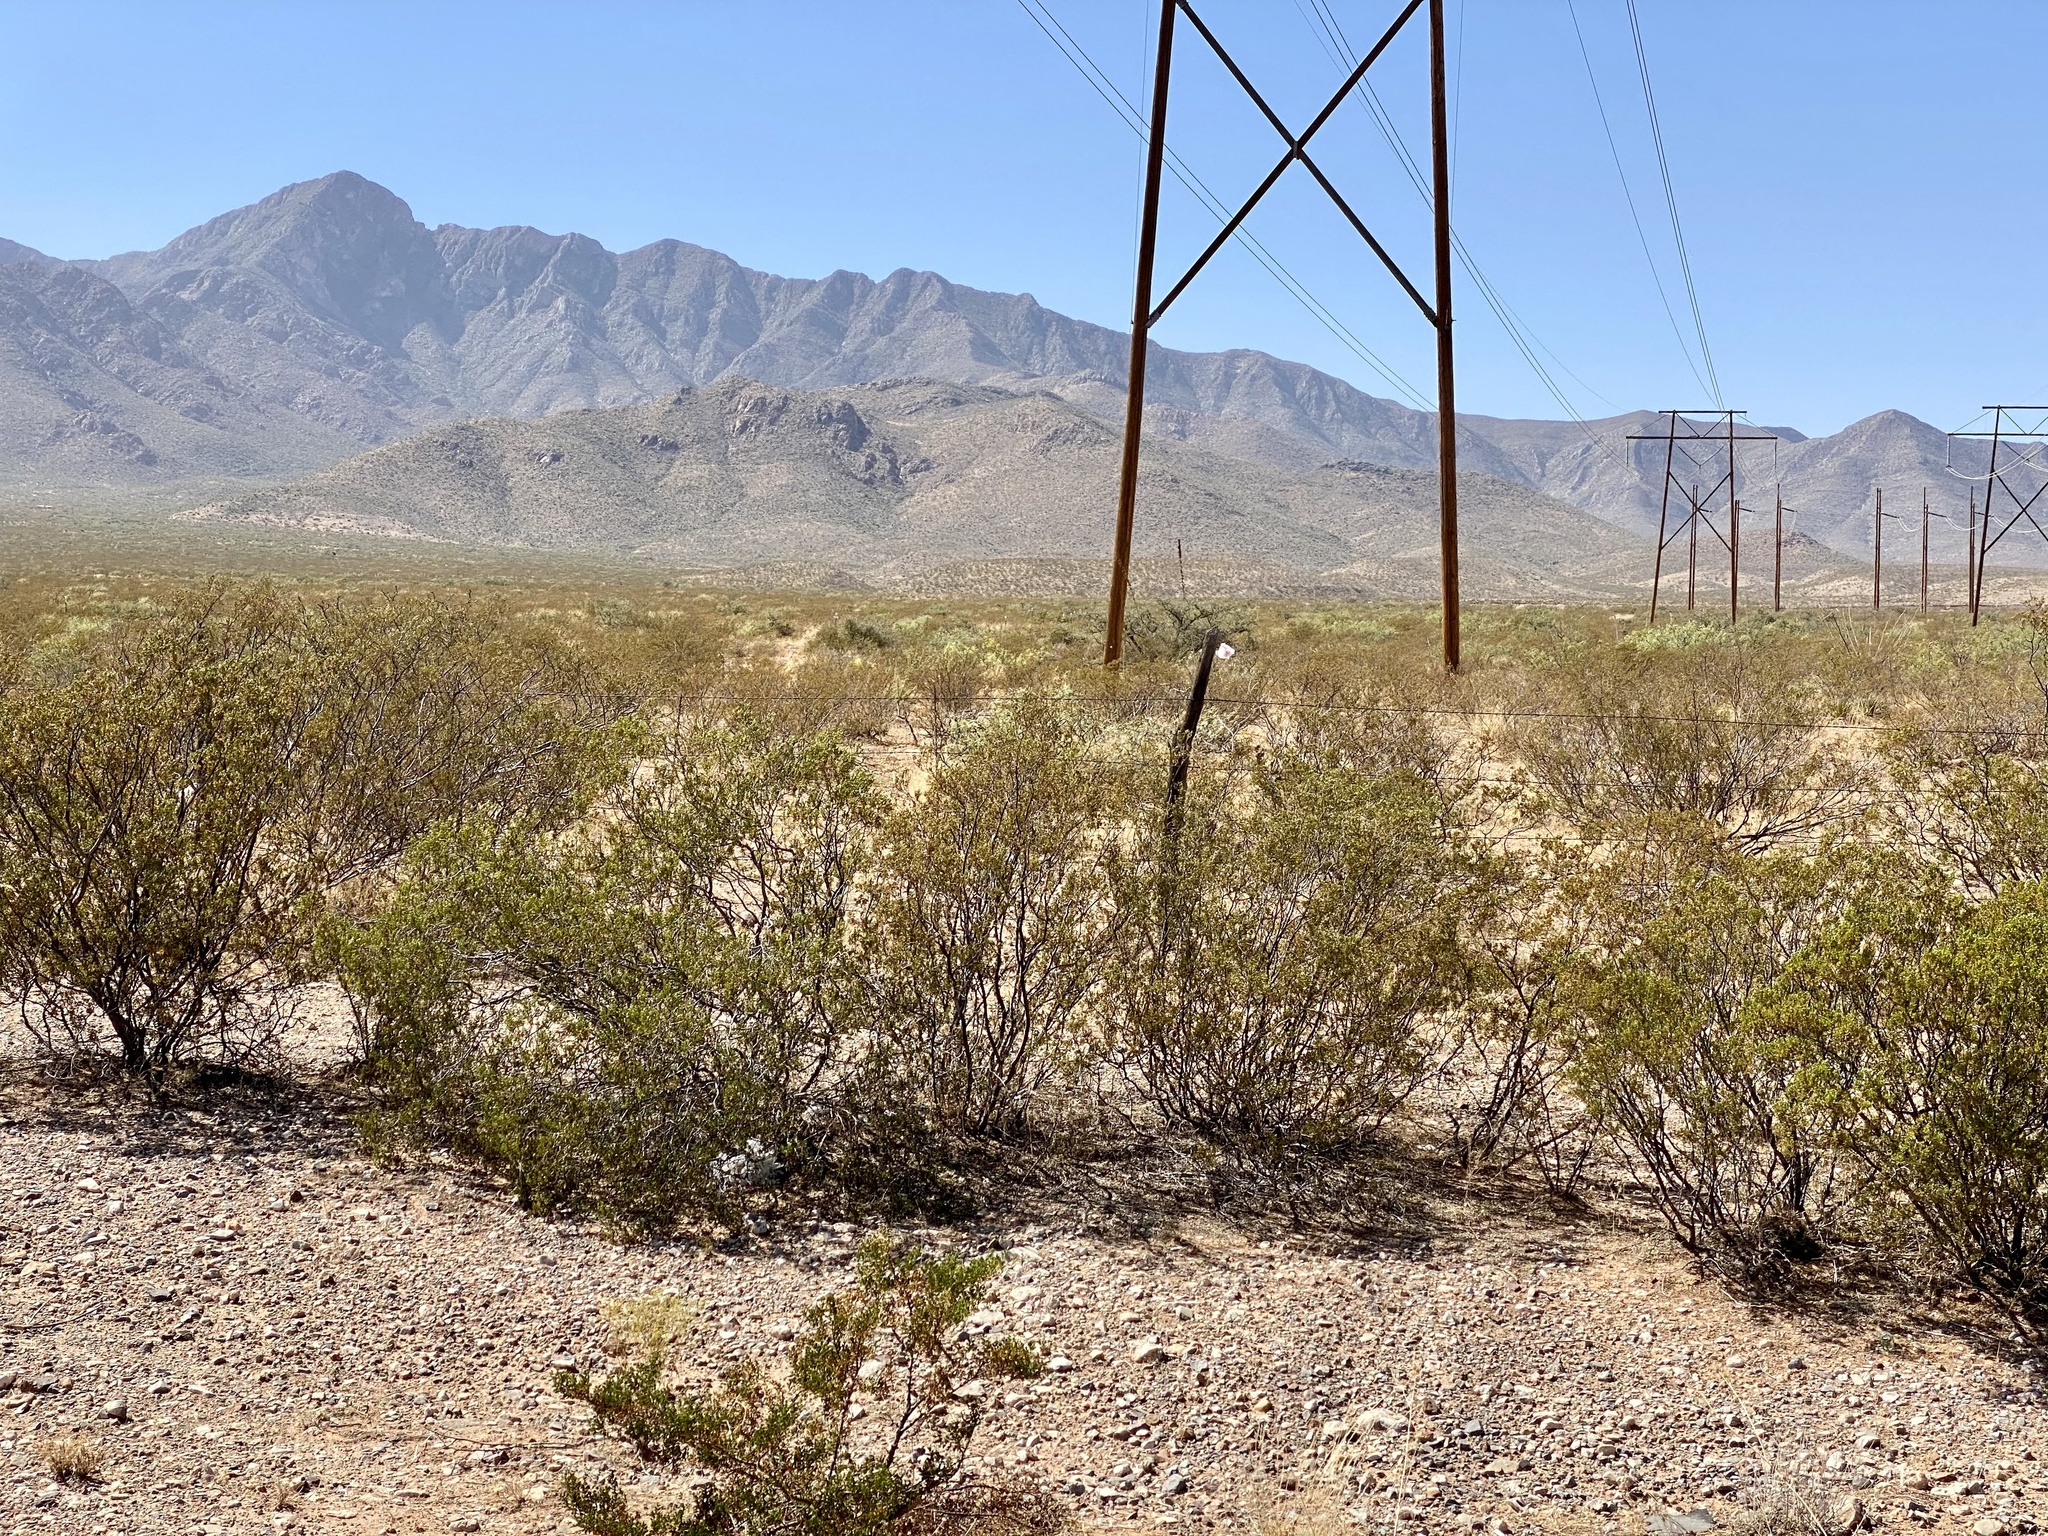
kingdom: Plantae
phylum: Tracheophyta
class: Magnoliopsida
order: Zygophyllales
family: Zygophyllaceae
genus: Larrea
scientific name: Larrea tridentata
